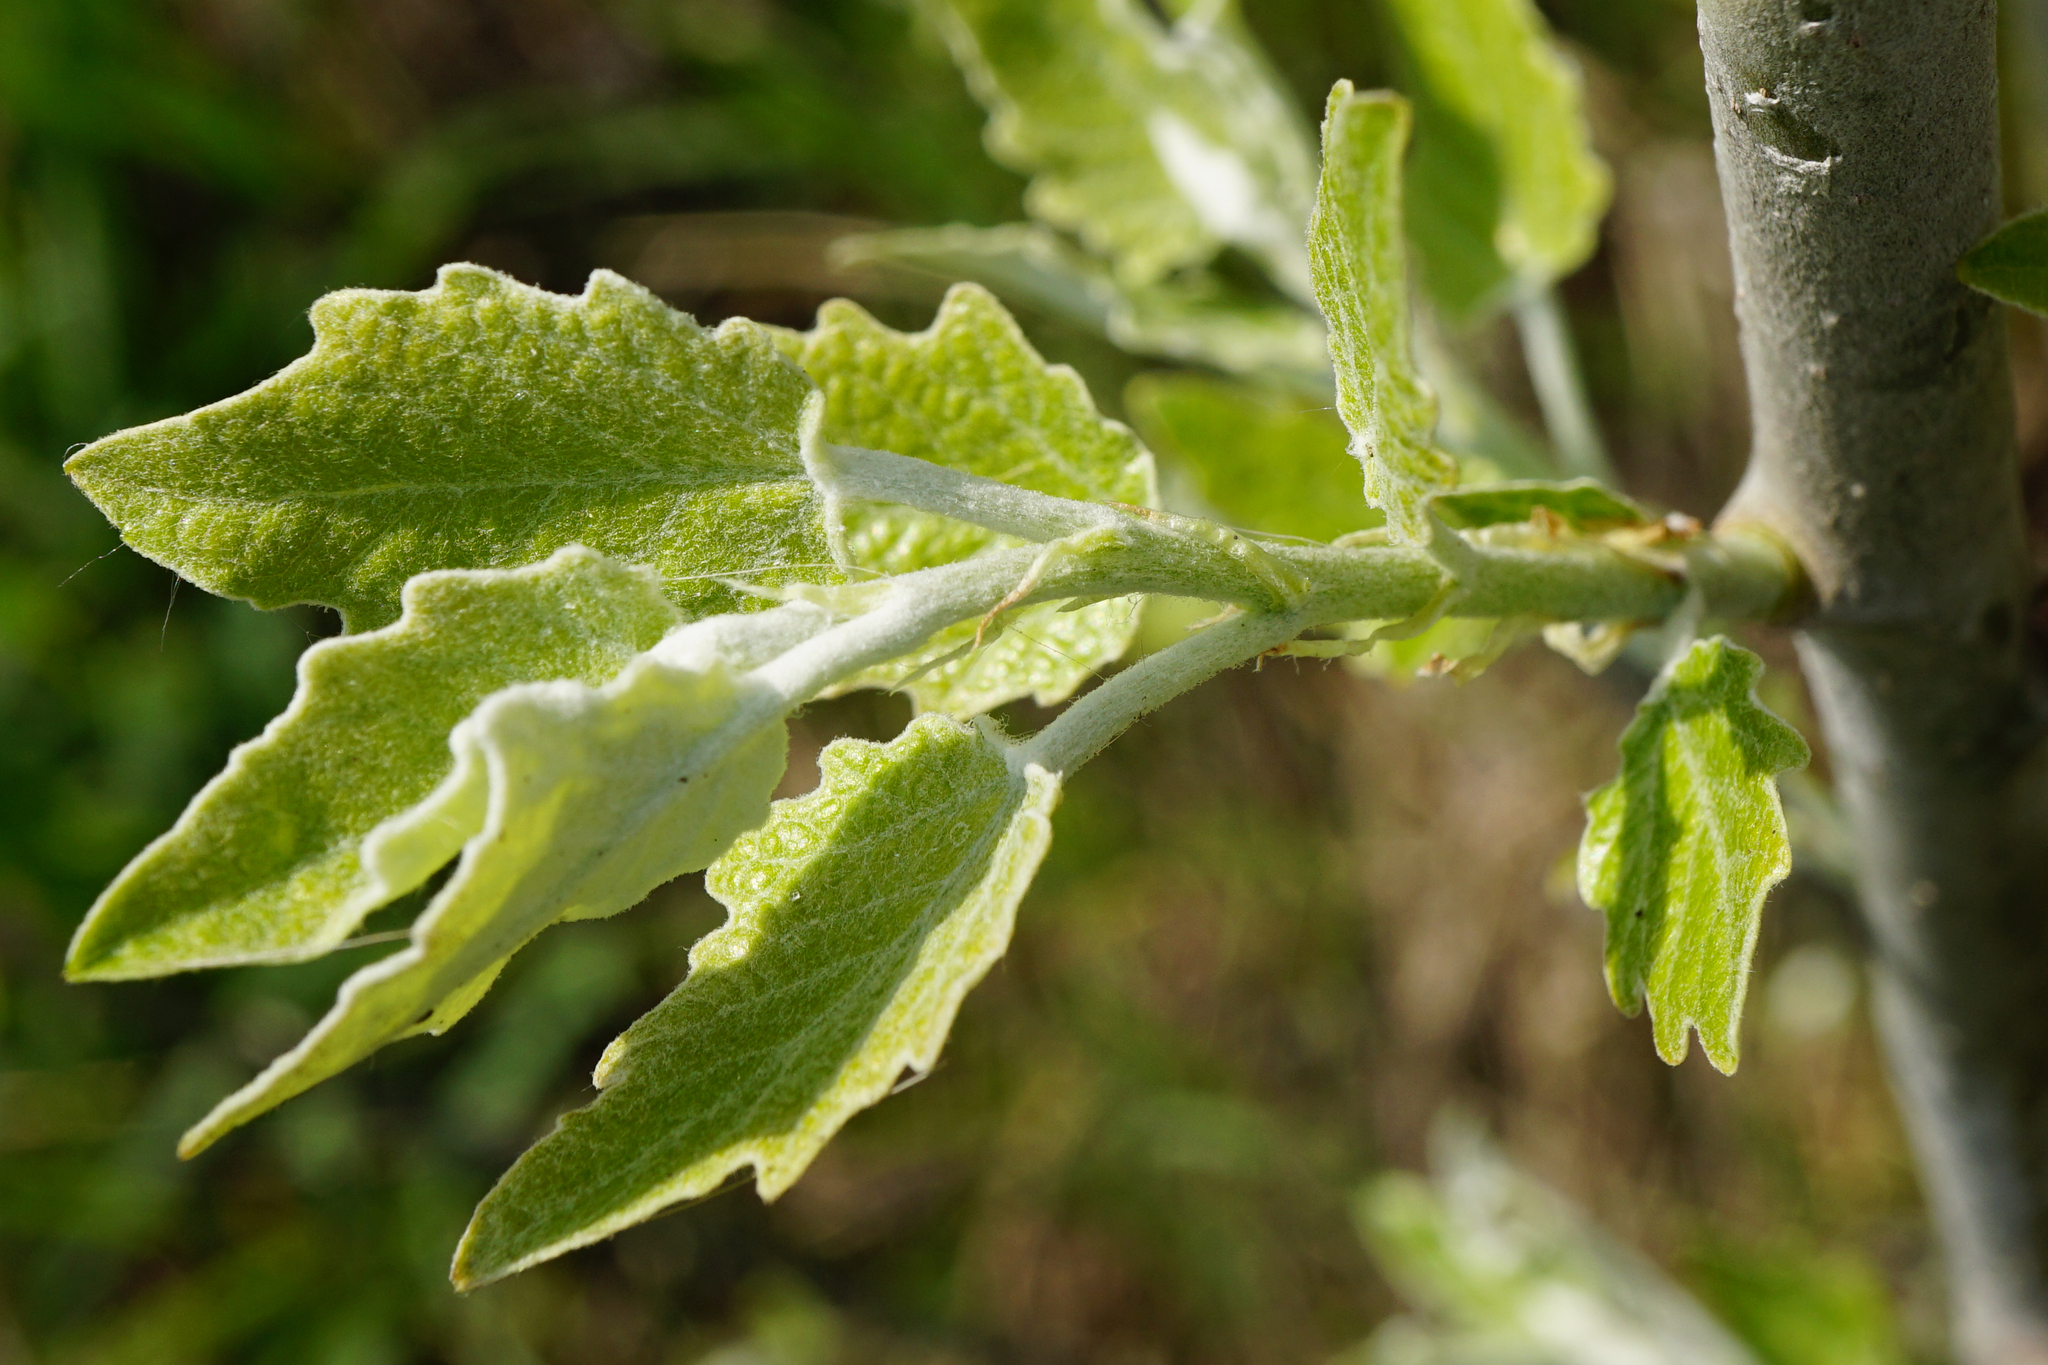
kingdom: Plantae
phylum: Tracheophyta
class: Magnoliopsida
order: Malpighiales
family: Salicaceae
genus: Populus
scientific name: Populus alba
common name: White poplar
